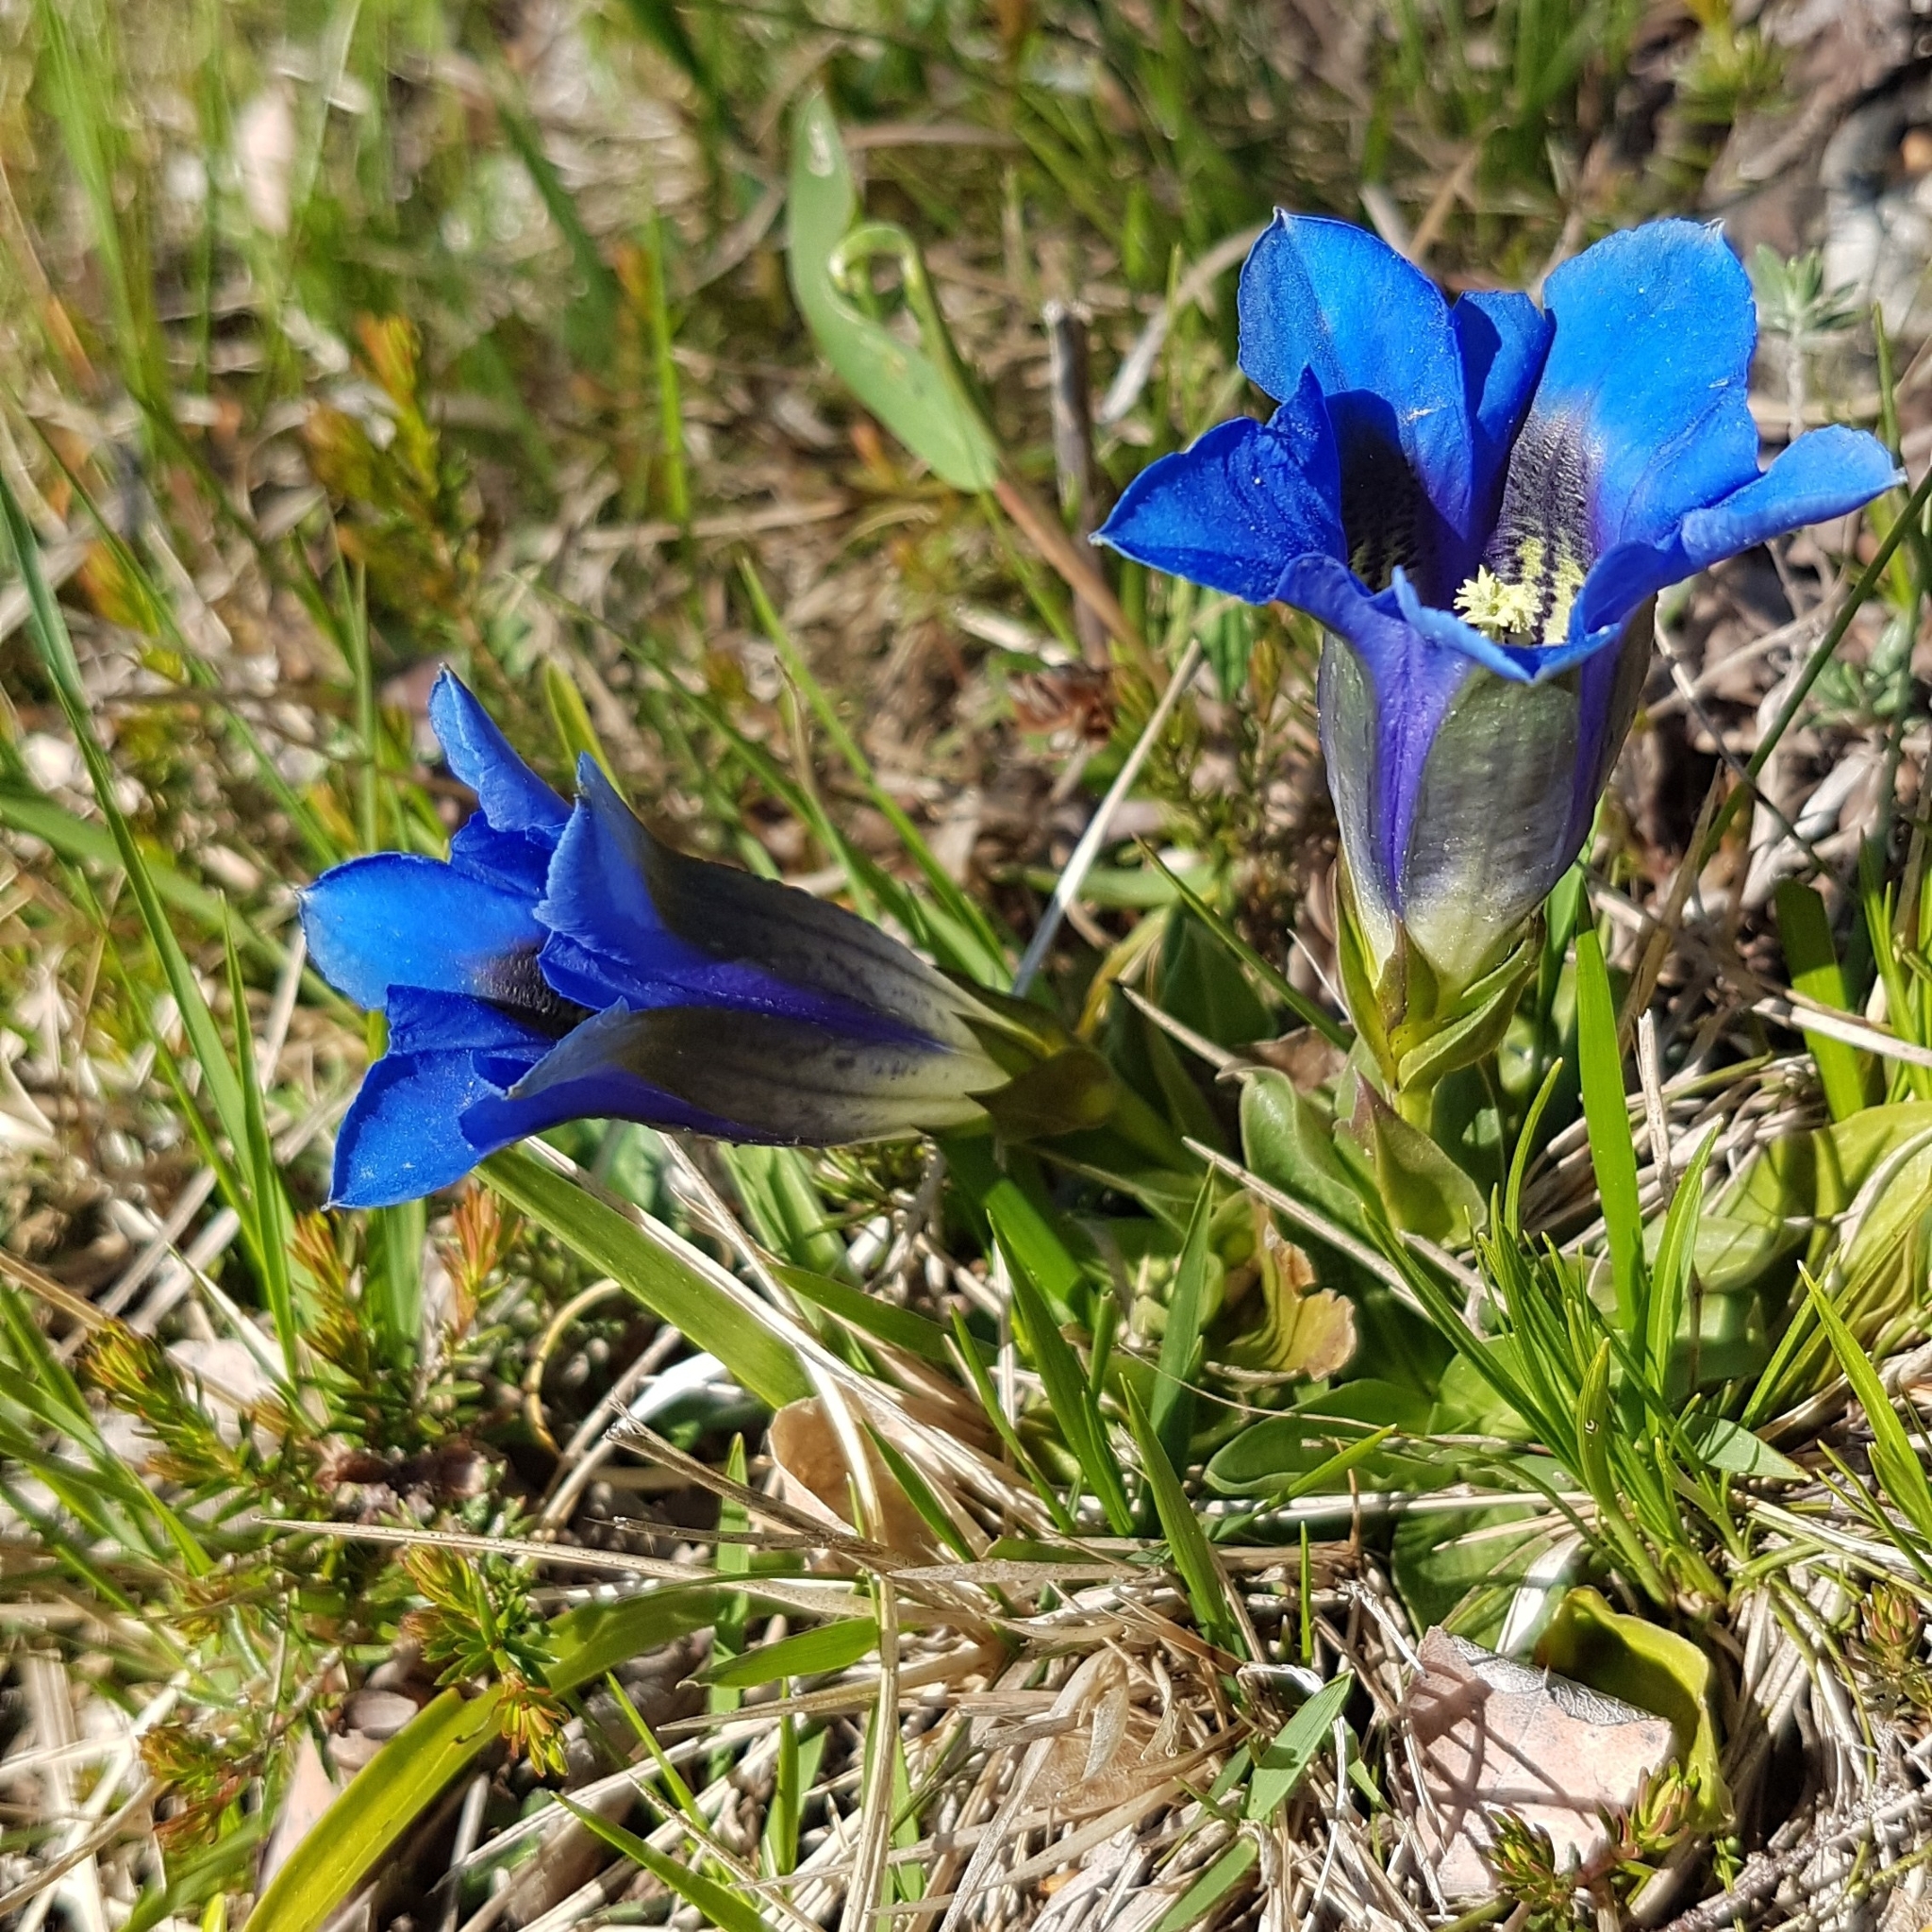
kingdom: Plantae
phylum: Tracheophyta
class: Magnoliopsida
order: Gentianales
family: Gentianaceae
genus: Gentiana
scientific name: Gentiana clusii
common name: Trumpet gentian
